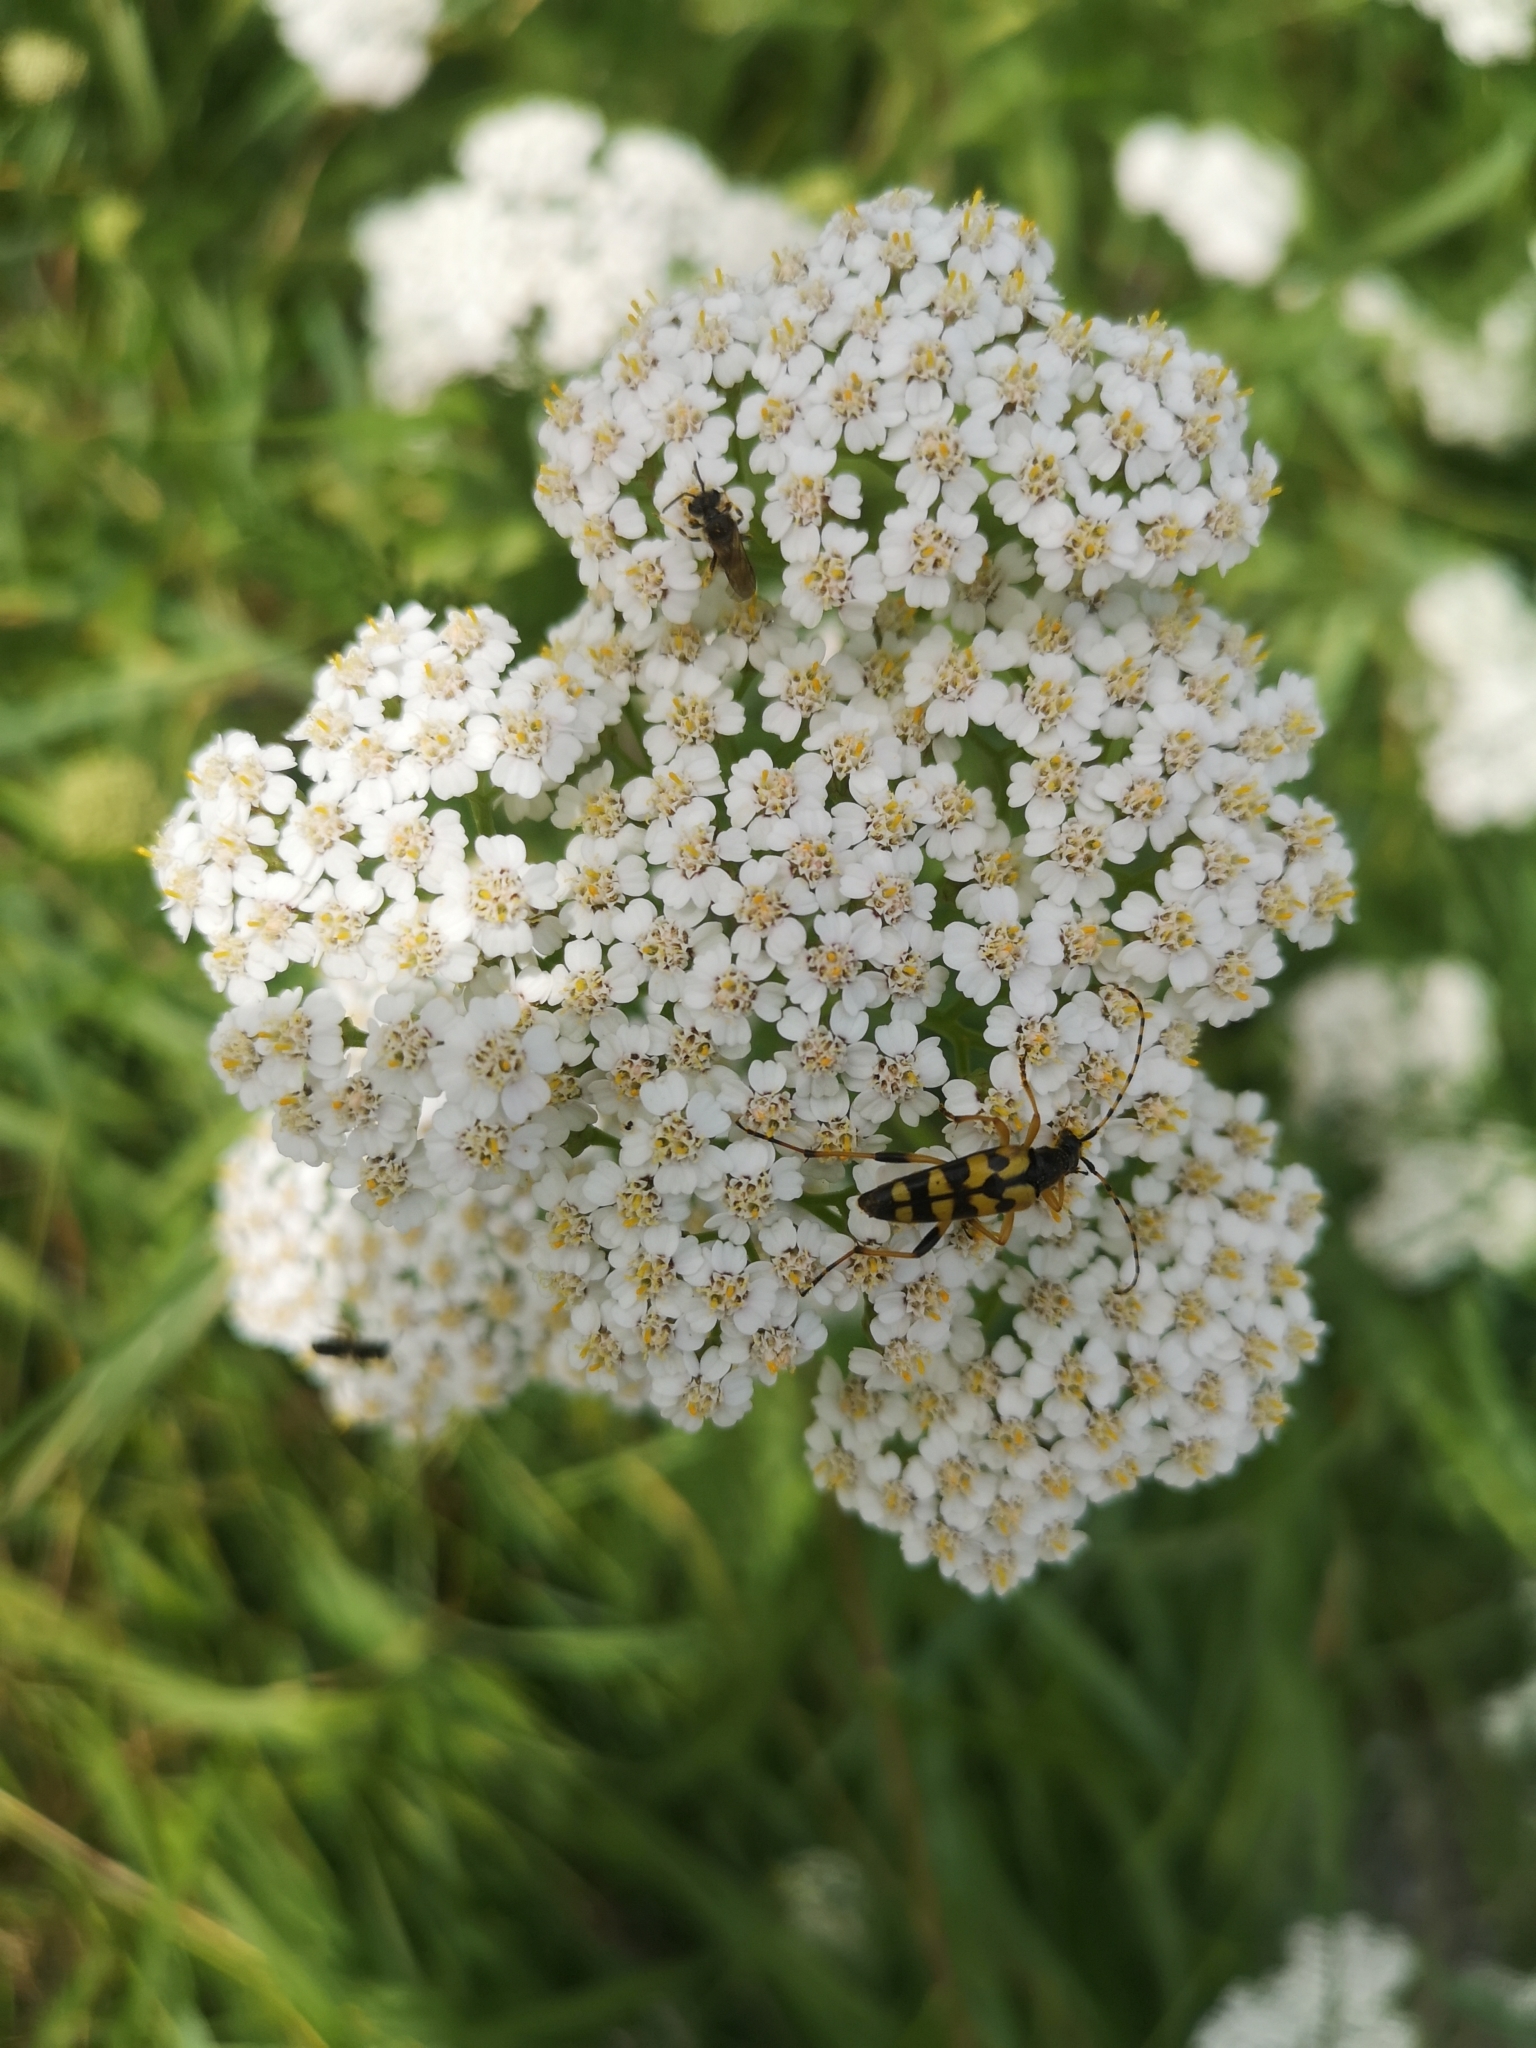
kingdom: Animalia
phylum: Arthropoda
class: Insecta
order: Coleoptera
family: Cerambycidae
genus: Rutpela
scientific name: Rutpela maculata
